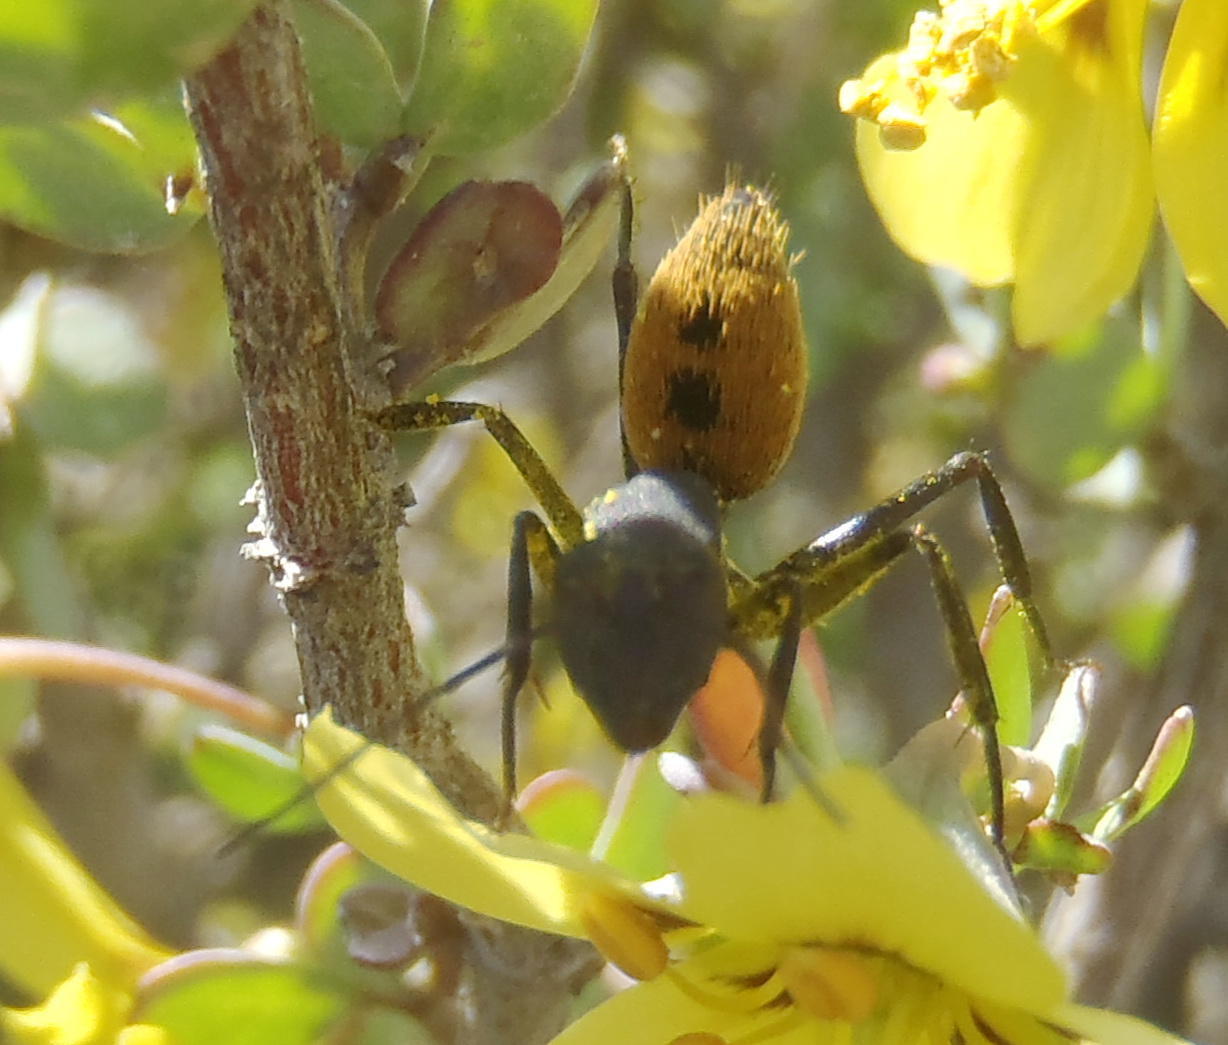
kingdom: Animalia
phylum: Arthropoda
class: Insecta
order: Hymenoptera
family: Formicidae
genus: Camponotus
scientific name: Camponotus fulvopilosus
